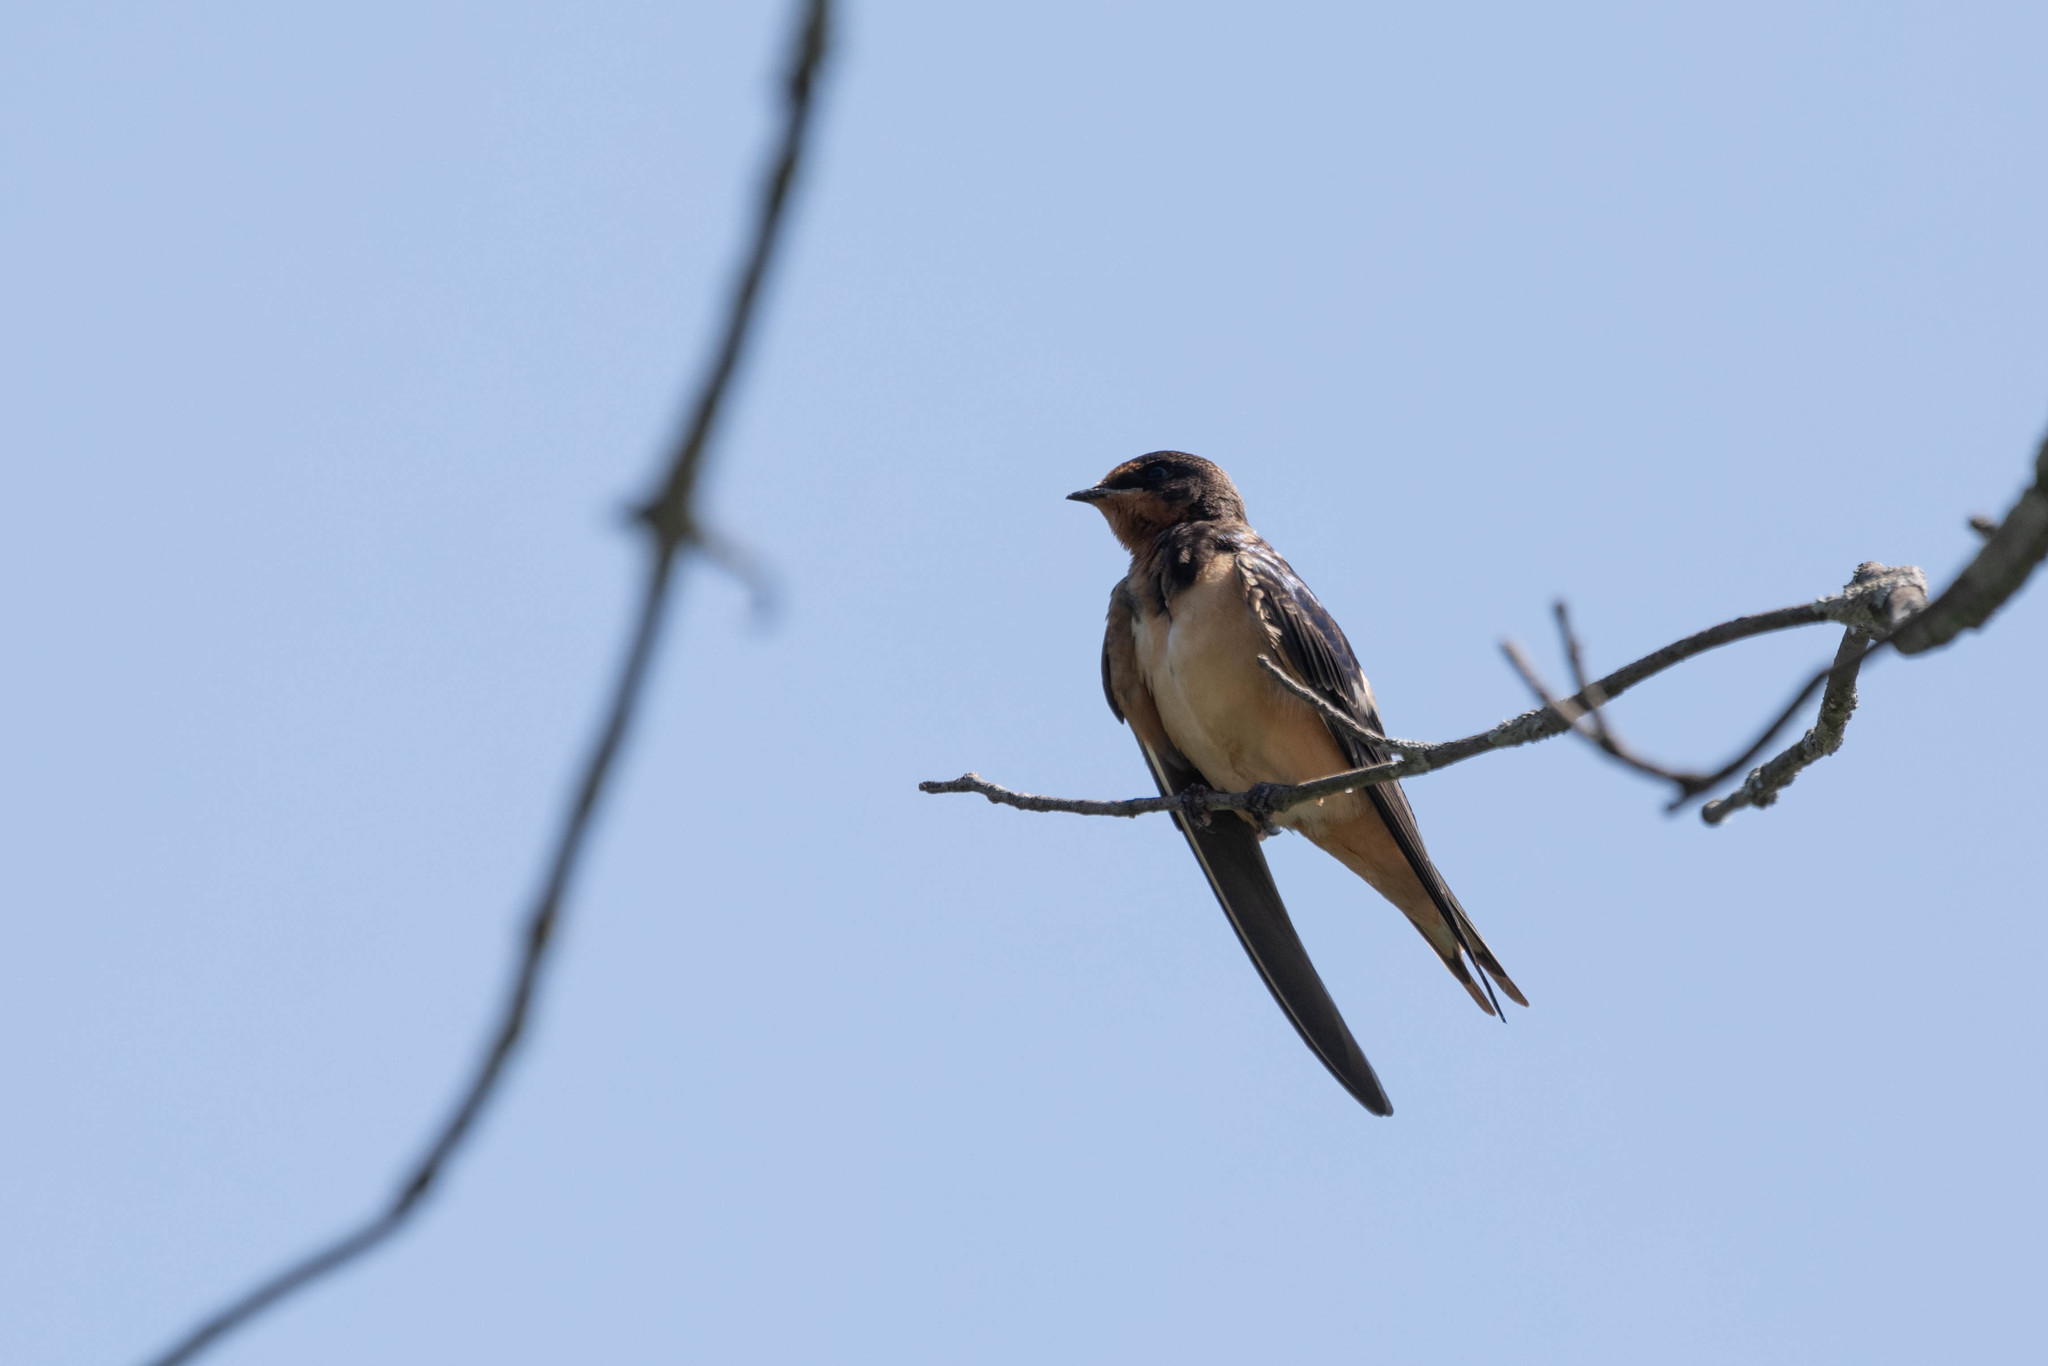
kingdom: Animalia
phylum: Chordata
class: Aves
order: Passeriformes
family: Hirundinidae
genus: Hirundo
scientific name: Hirundo rustica
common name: Barn swallow
